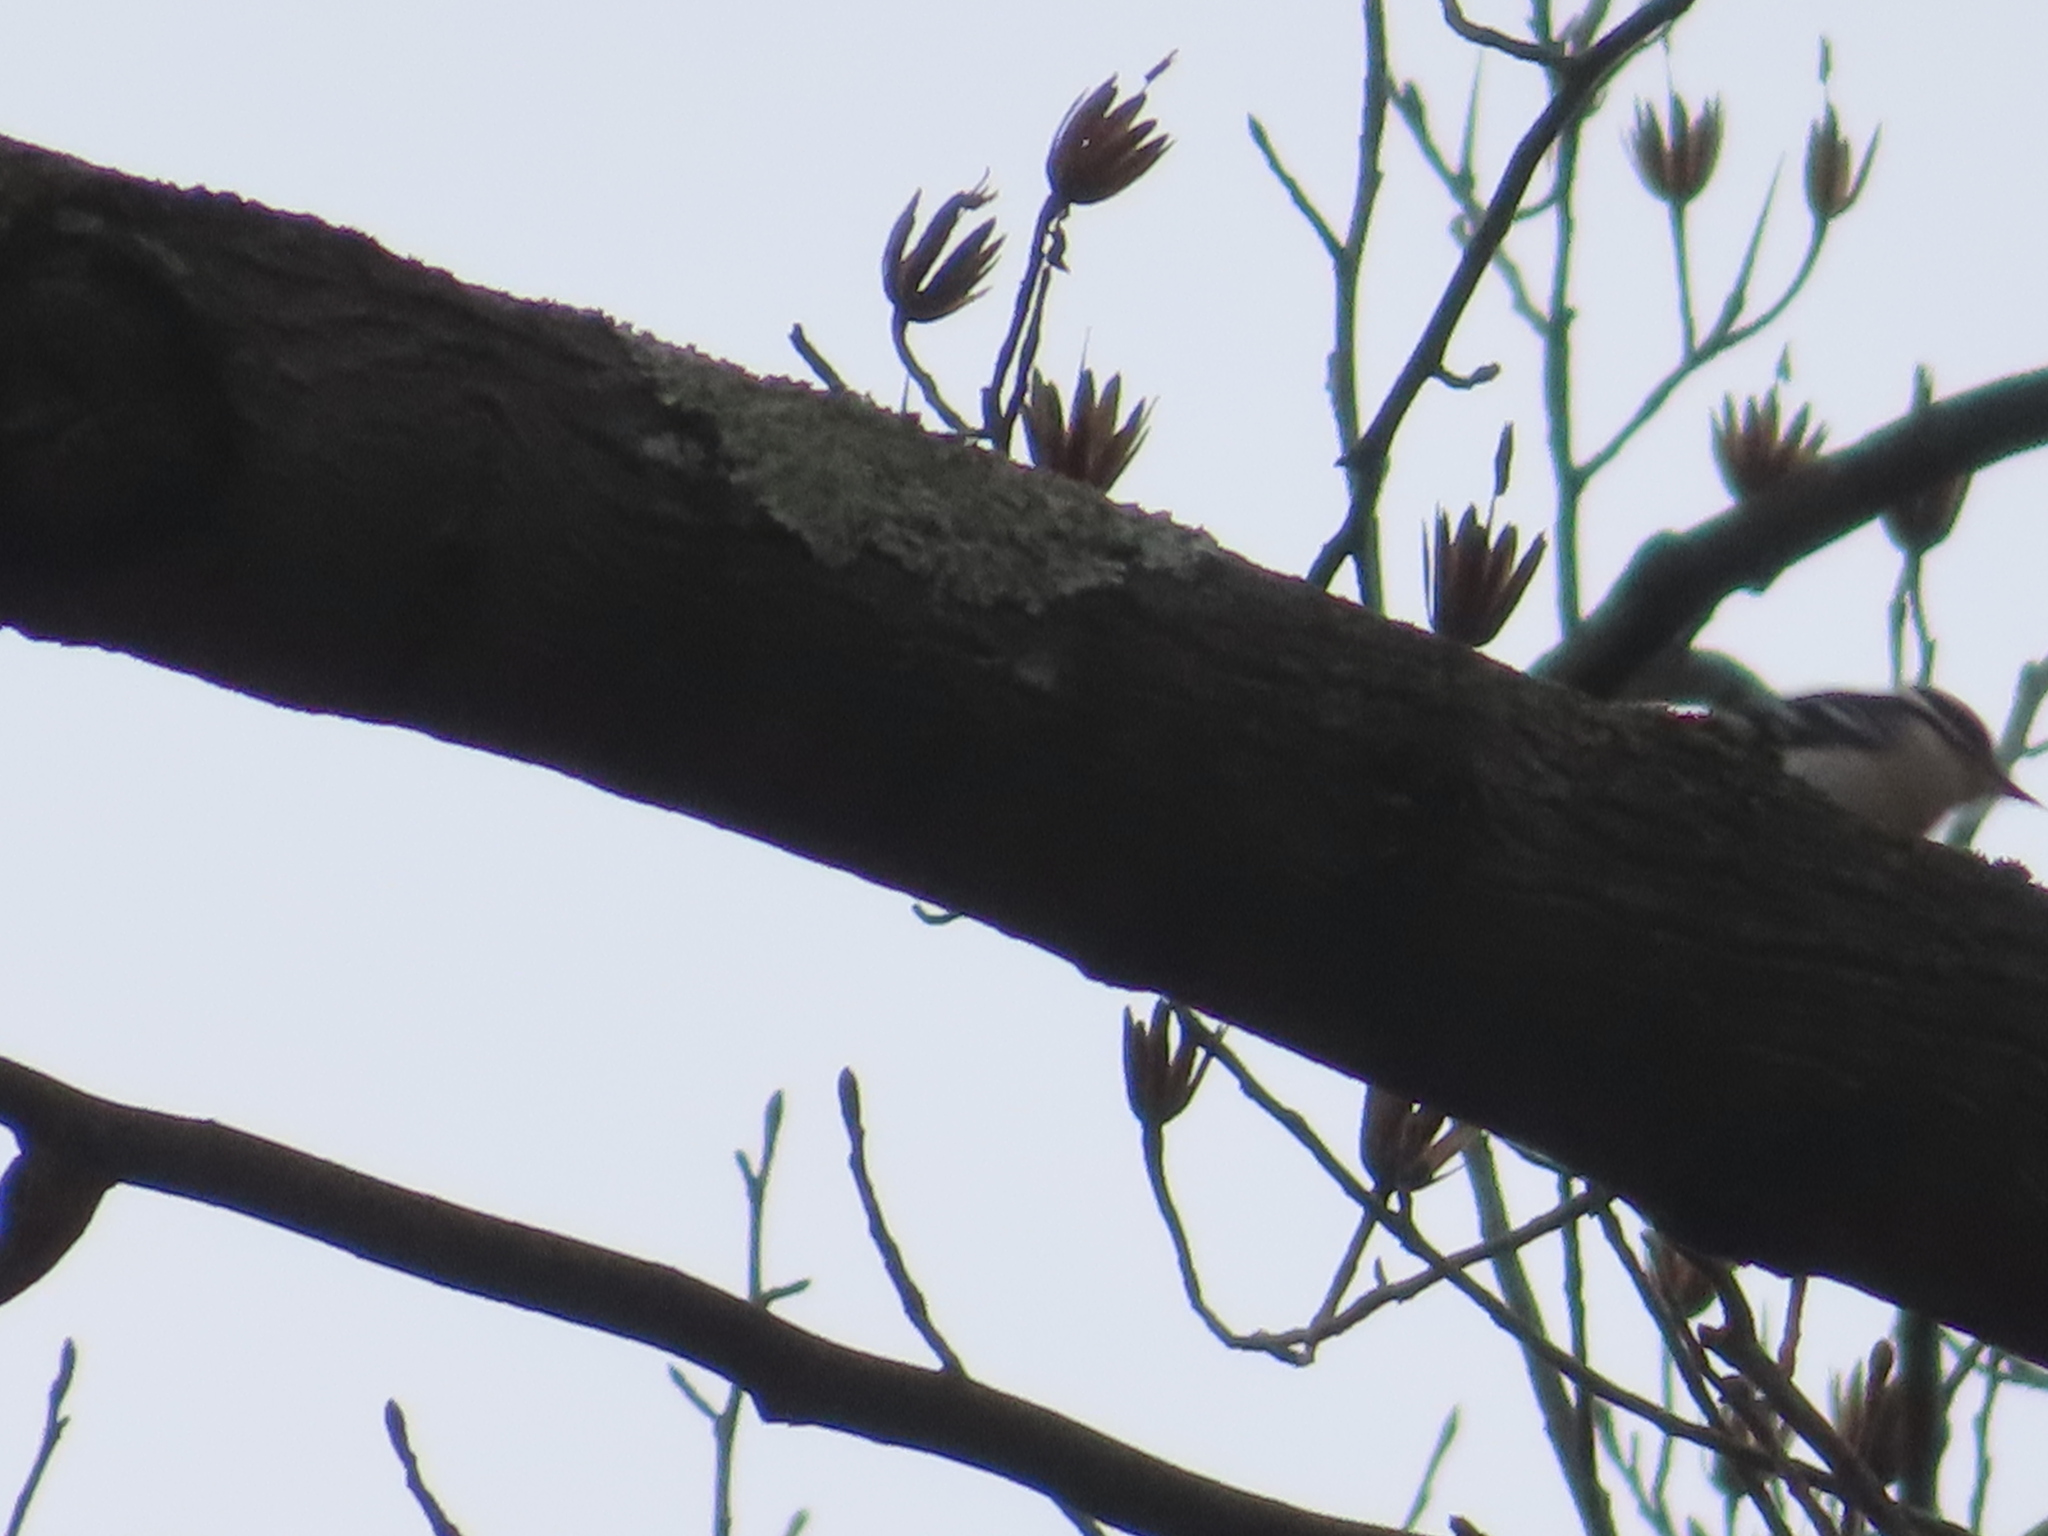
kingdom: Animalia
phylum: Chordata
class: Aves
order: Piciformes
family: Picidae
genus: Dryobates
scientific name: Dryobates pubescens
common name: Downy woodpecker
